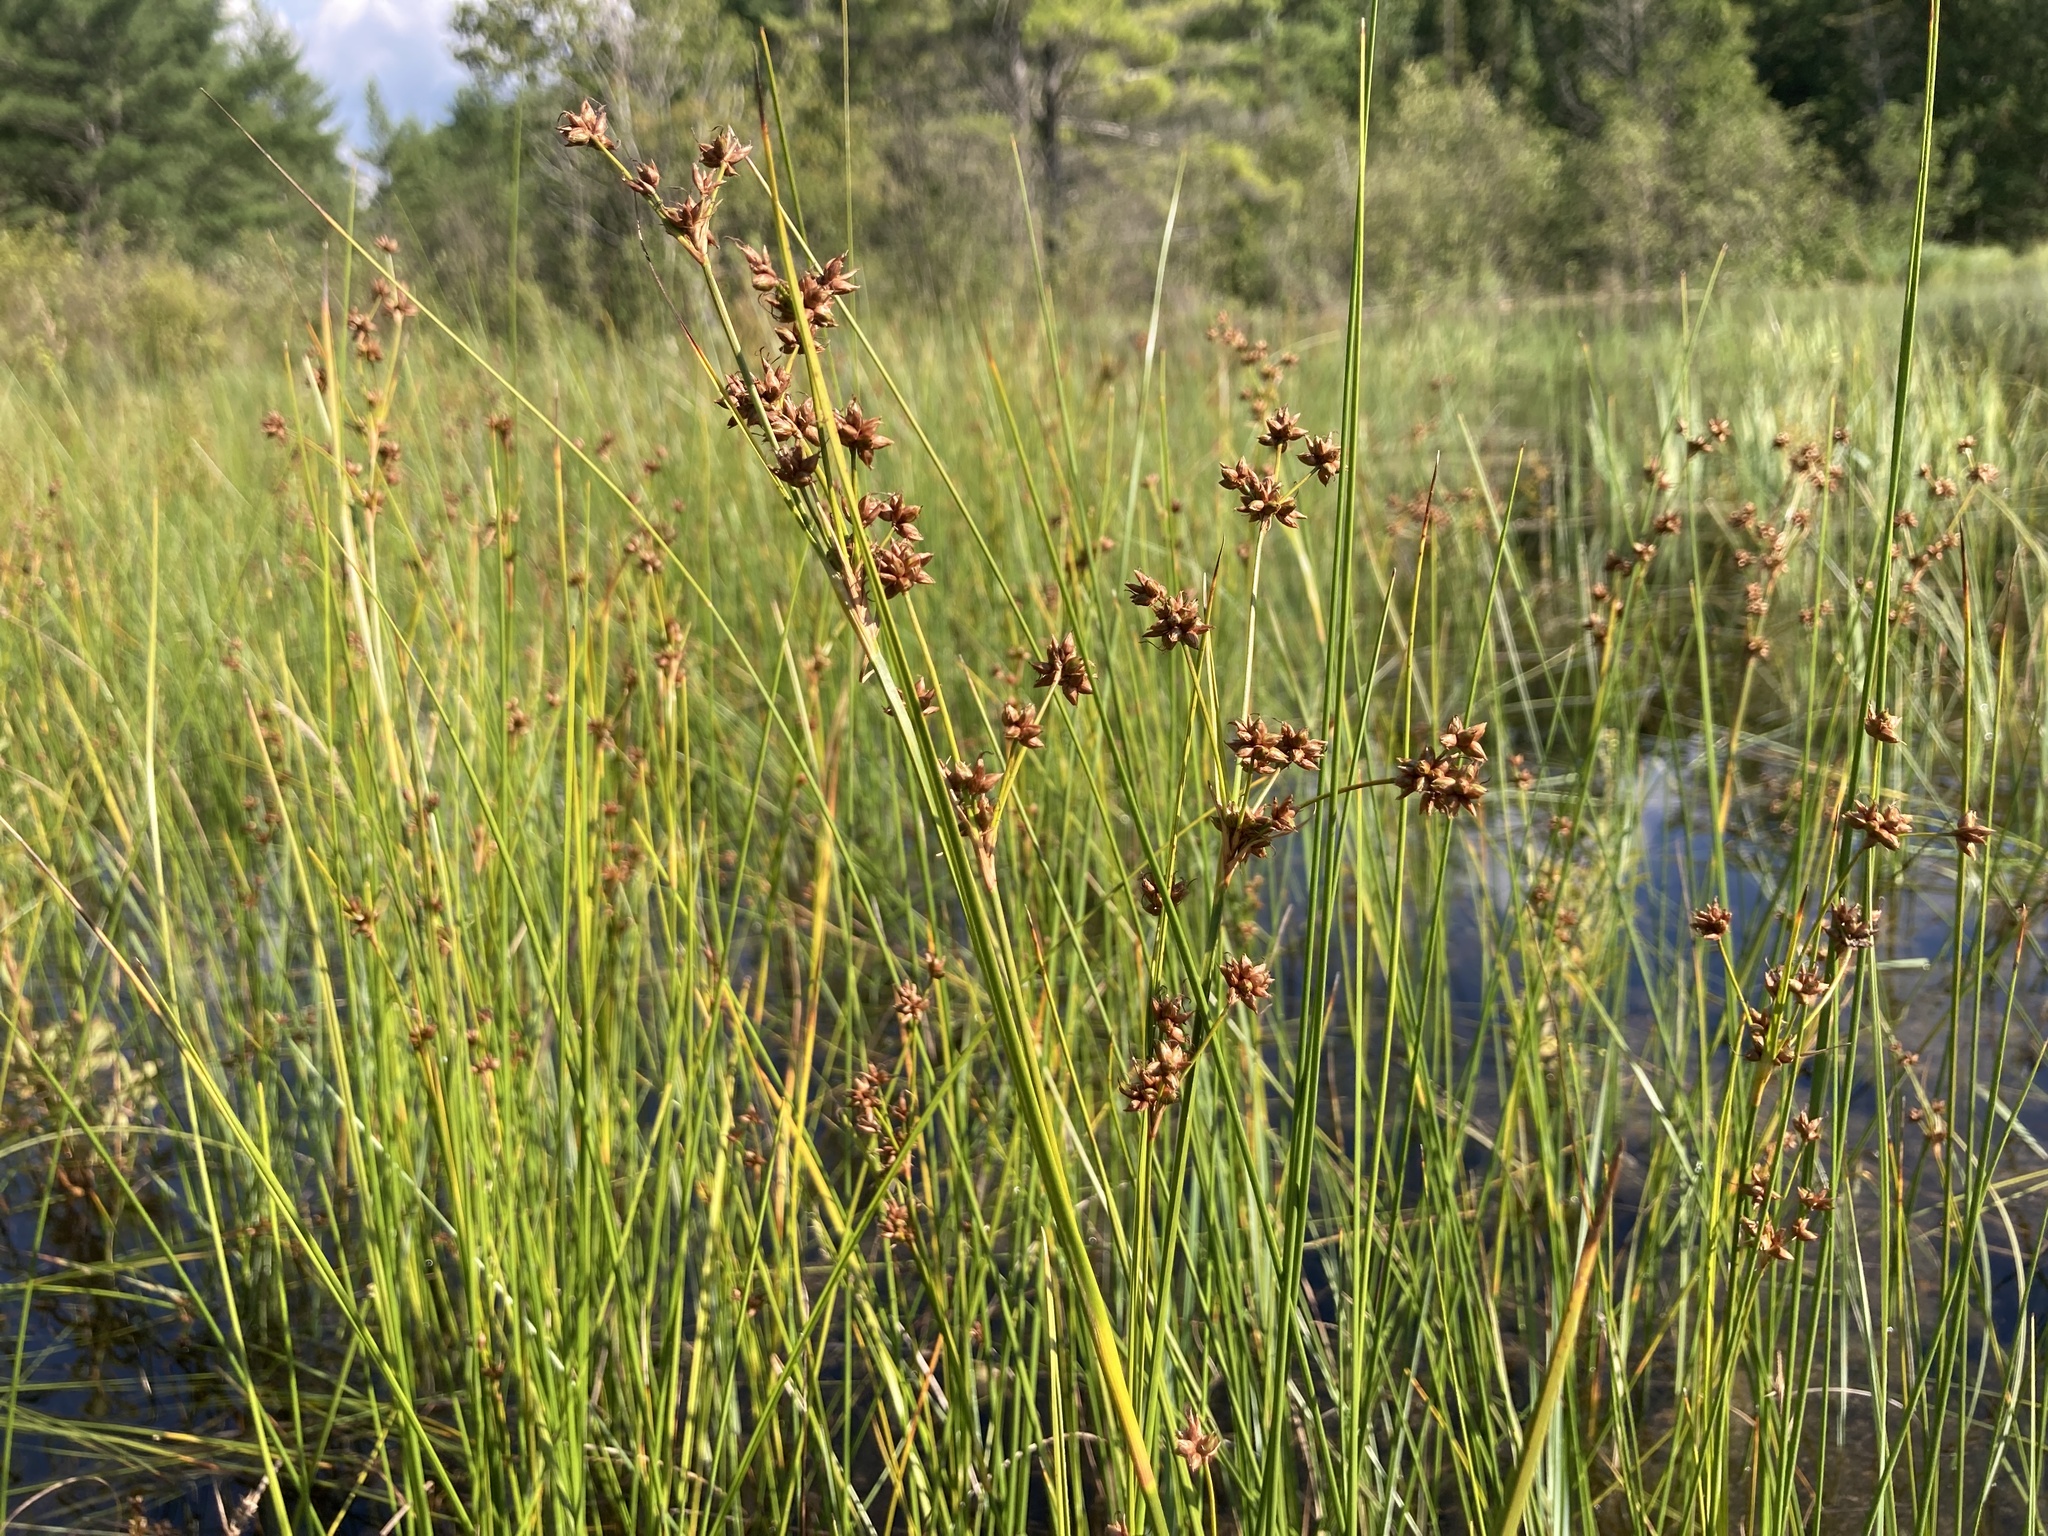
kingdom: Plantae
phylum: Tracheophyta
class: Liliopsida
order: Poales
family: Cyperaceae
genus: Cladium
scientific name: Cladium mariscoides
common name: Smooth sawgrass
